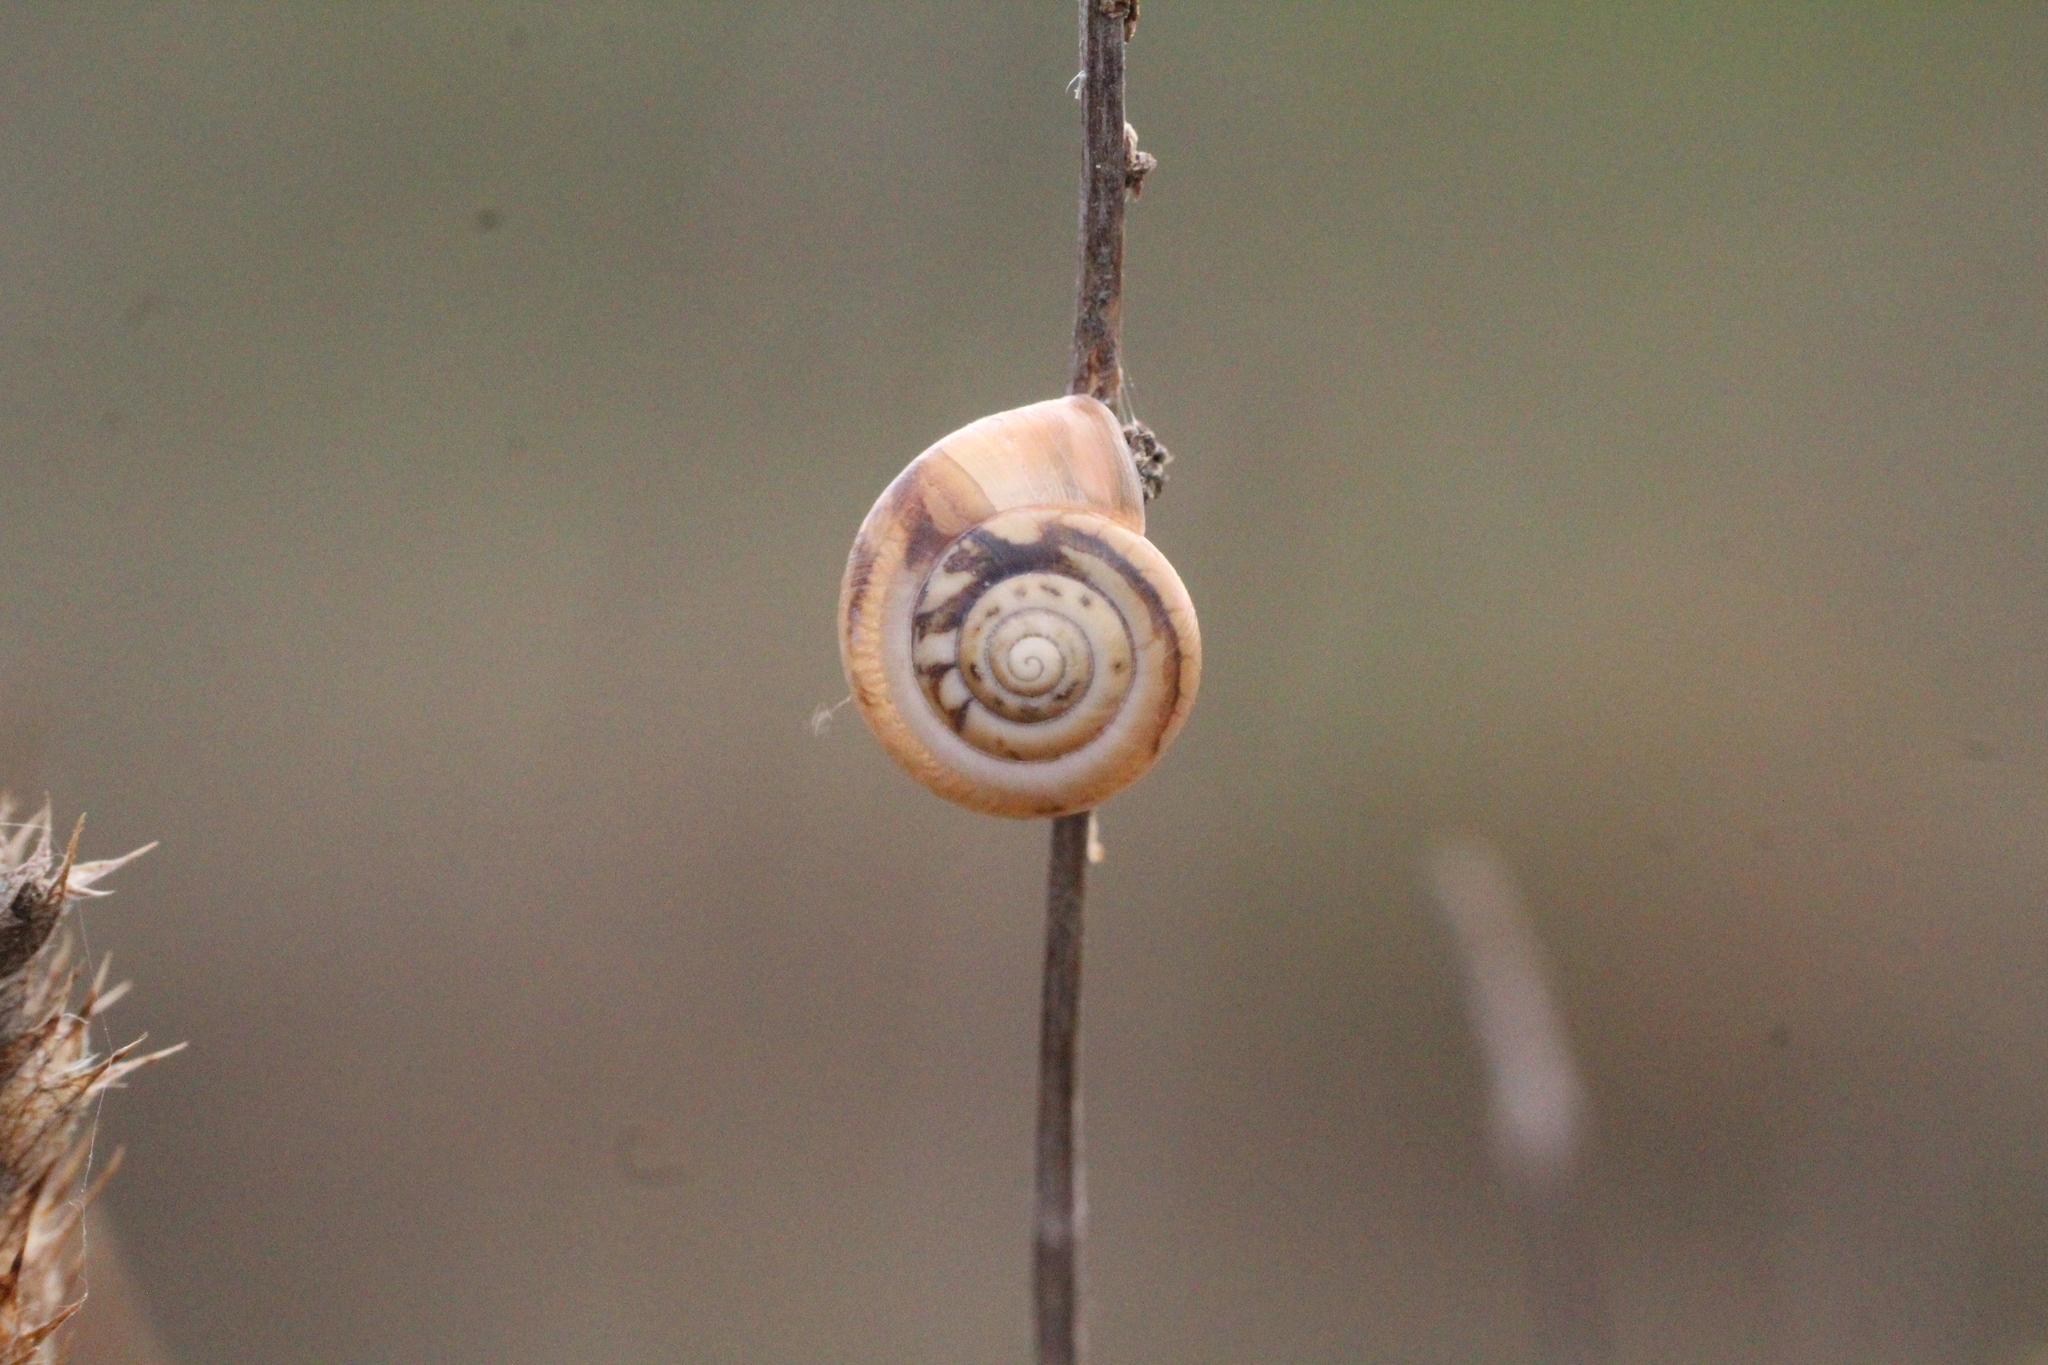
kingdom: Animalia
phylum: Mollusca
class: Gastropoda
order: Stylommatophora
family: Hygromiidae
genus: Monacha
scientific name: Monacha cartusiana
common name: Carthusian snail
